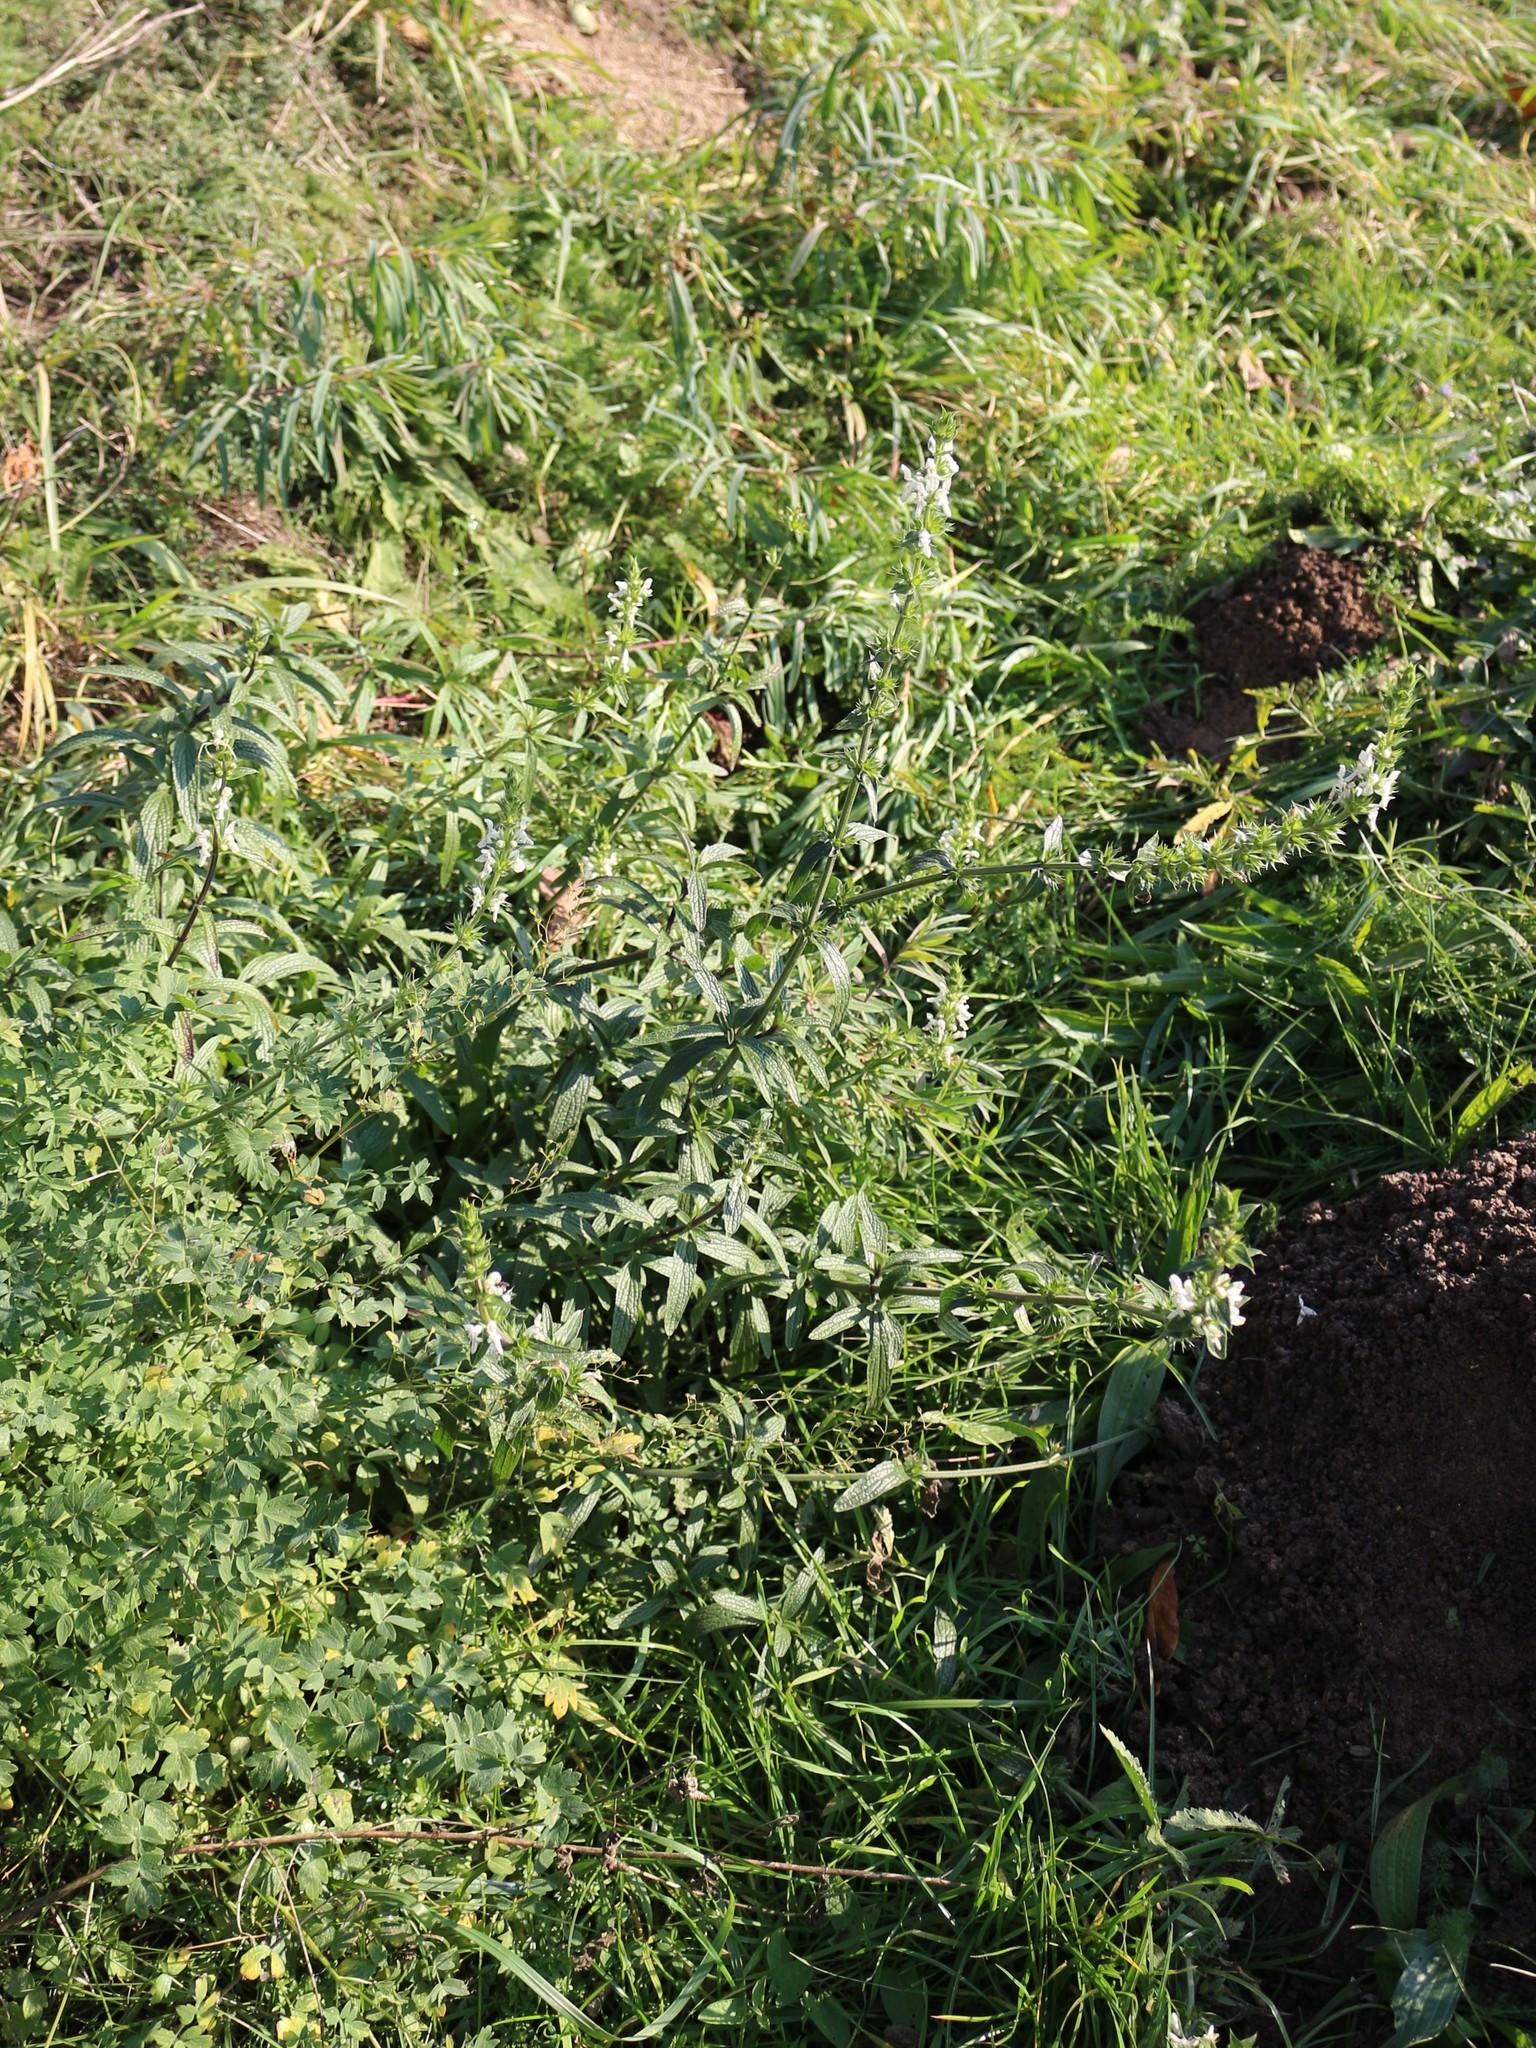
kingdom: Plantae
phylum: Tracheophyta
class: Magnoliopsida
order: Lamiales
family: Lamiaceae
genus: Stachys
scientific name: Stachys atherocalyx
